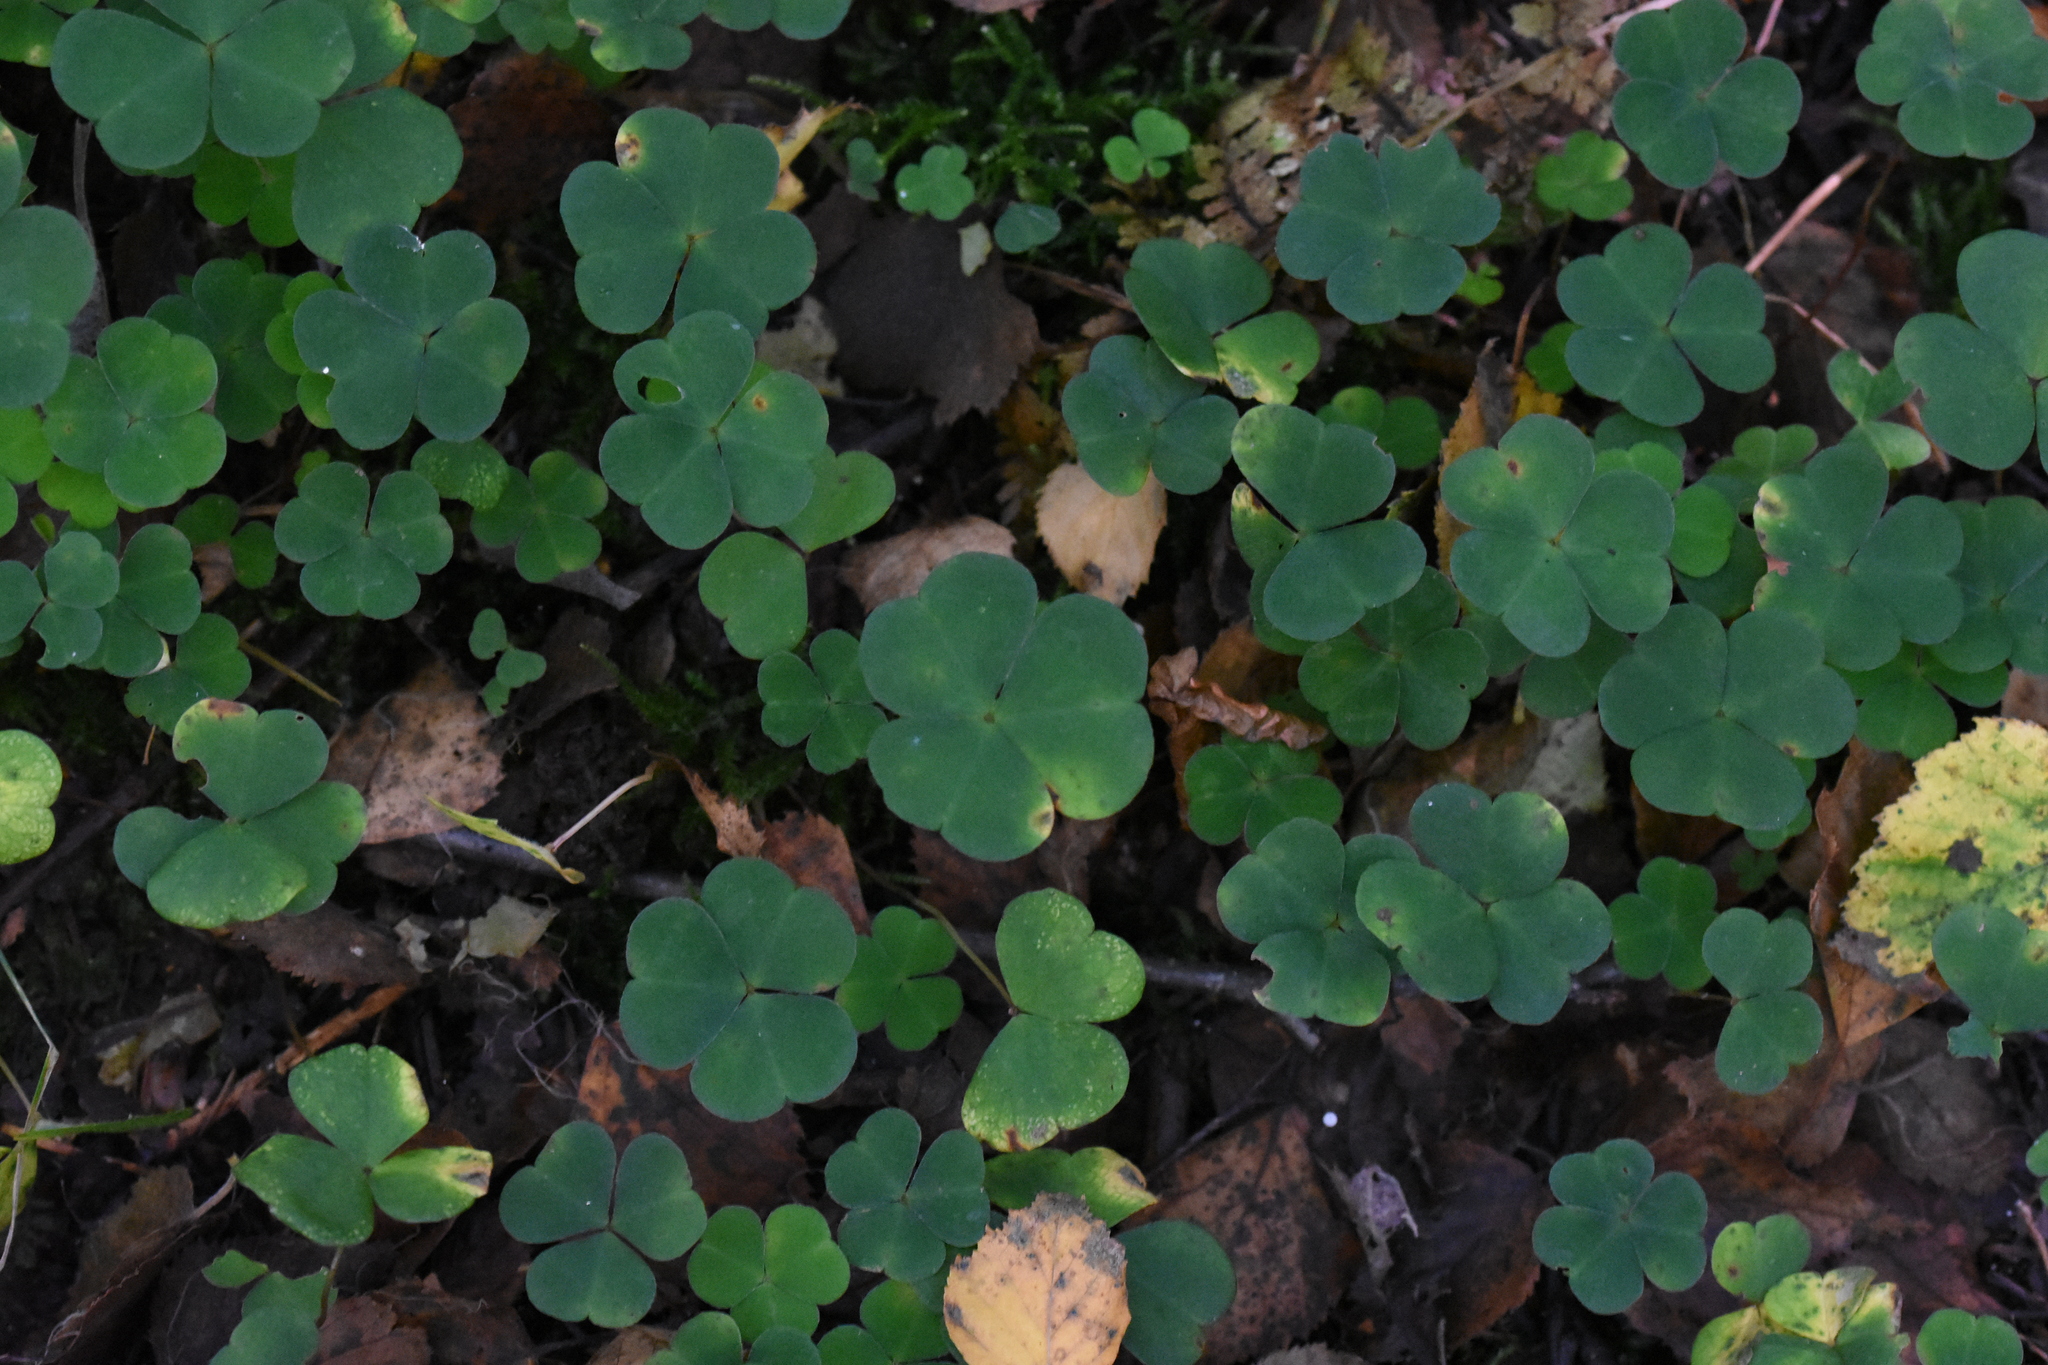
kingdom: Plantae
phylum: Tracheophyta
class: Magnoliopsida
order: Oxalidales
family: Oxalidaceae
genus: Oxalis
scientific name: Oxalis acetosella
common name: Wood-sorrel
